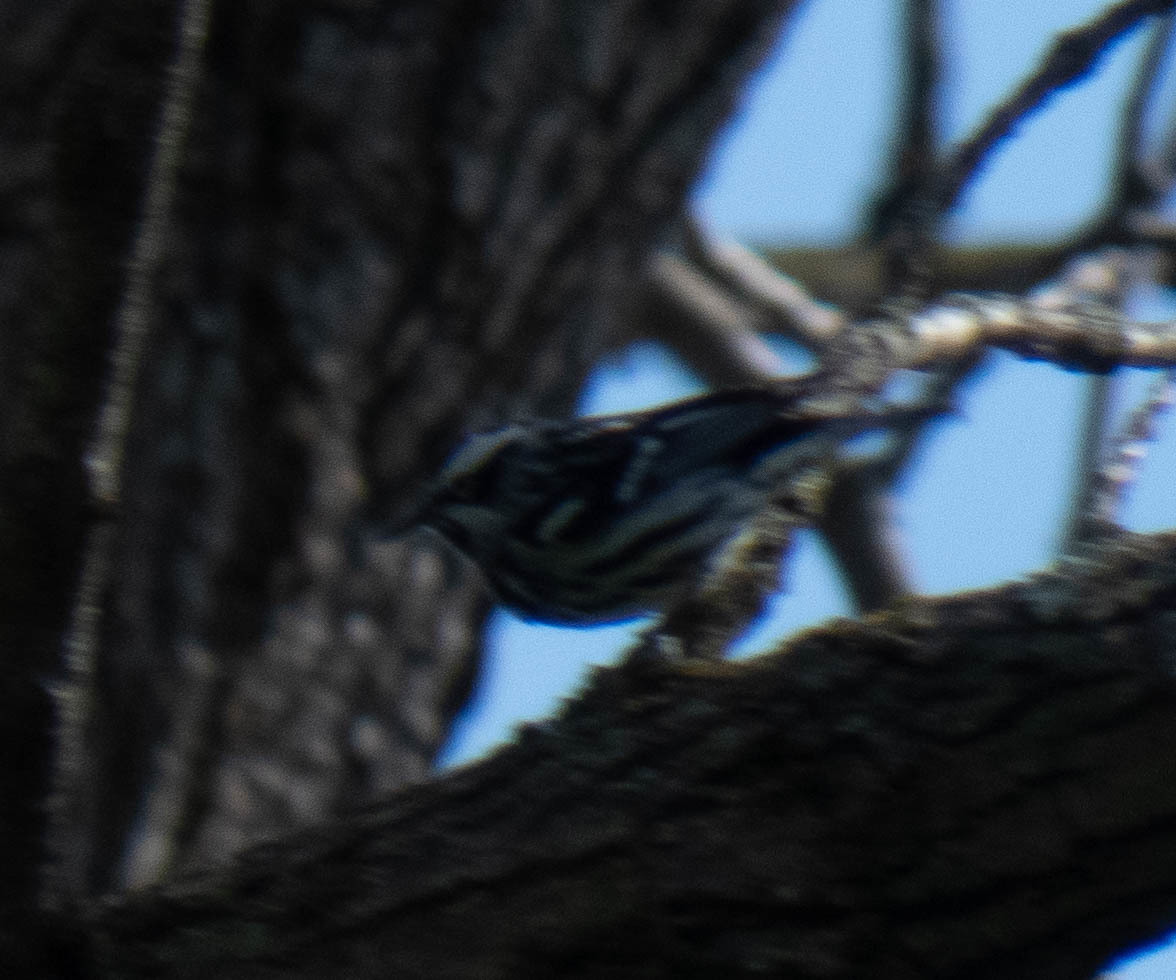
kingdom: Animalia
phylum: Chordata
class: Aves
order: Passeriformes
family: Parulidae
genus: Mniotilta
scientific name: Mniotilta varia
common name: Black-and-white warbler
